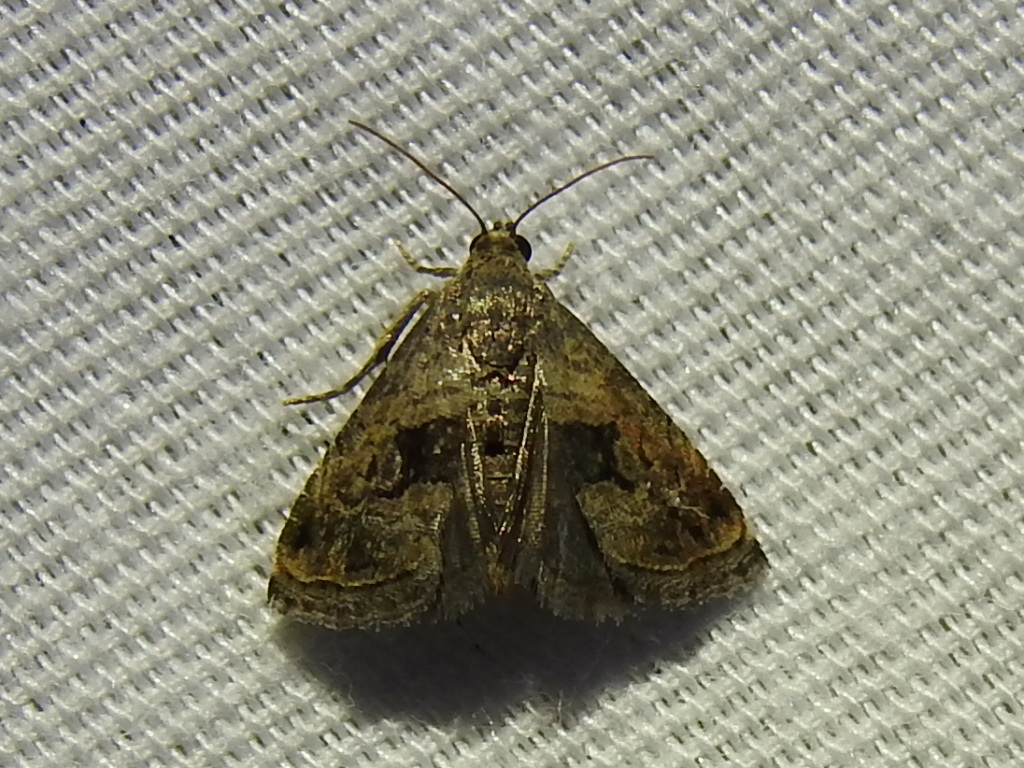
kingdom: Animalia
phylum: Arthropoda
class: Insecta
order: Lepidoptera
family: Noctuidae
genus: Tripudia
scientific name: Tripudia quadrifera
